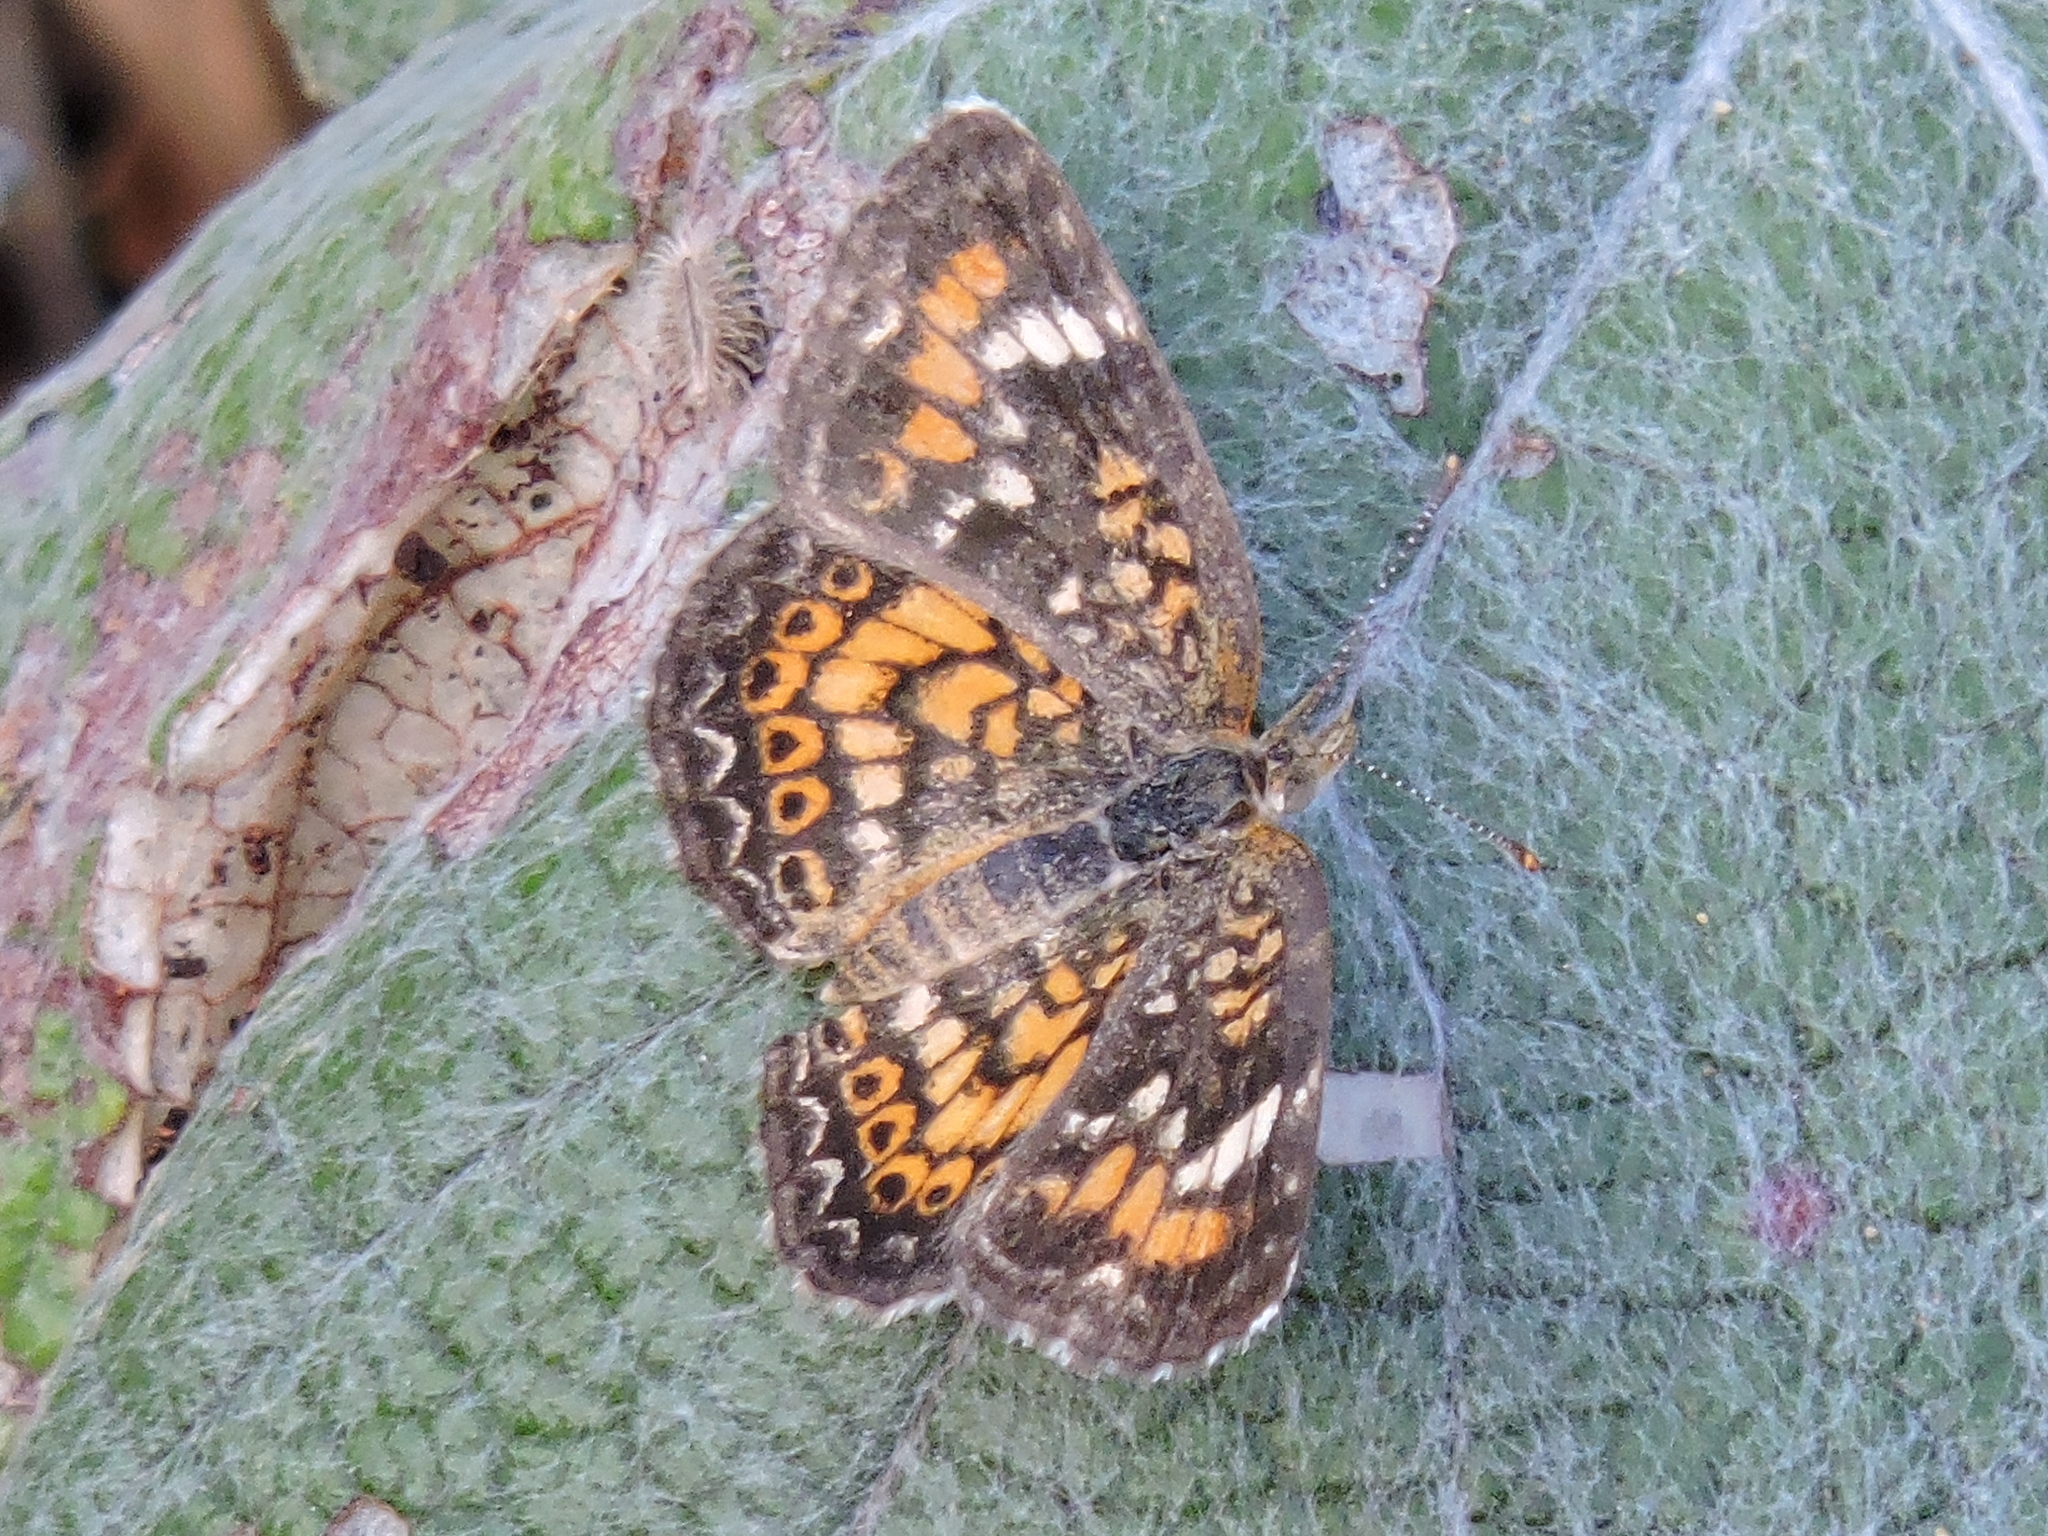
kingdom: Animalia
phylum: Arthropoda
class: Insecta
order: Lepidoptera
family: Nymphalidae
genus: Phyciodes
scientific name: Phyciodes phaon
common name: Phaon crescent
